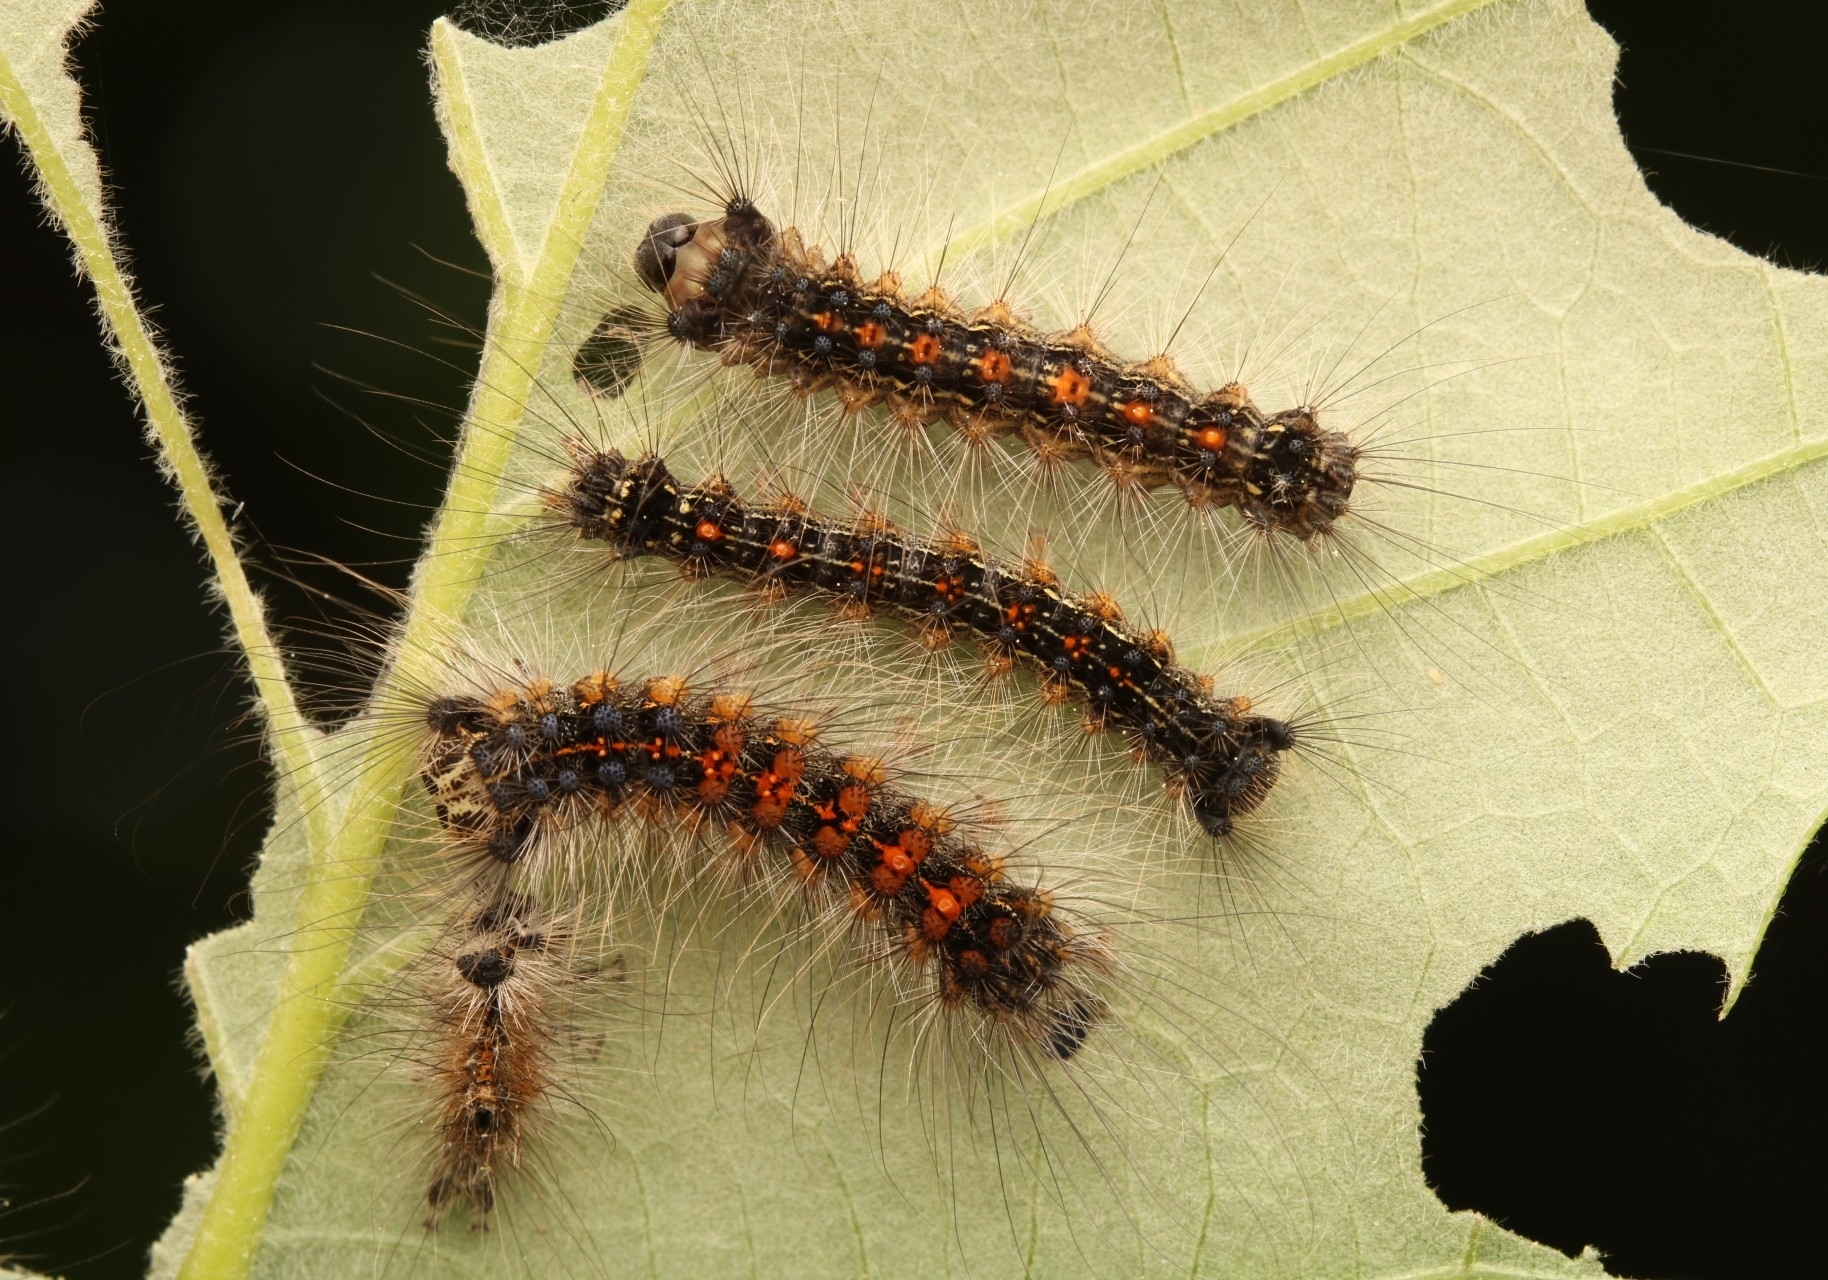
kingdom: Animalia
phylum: Arthropoda
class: Insecta
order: Lepidoptera
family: Erebidae
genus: Lymantria
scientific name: Lymantria dispar
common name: Gypsy moth
